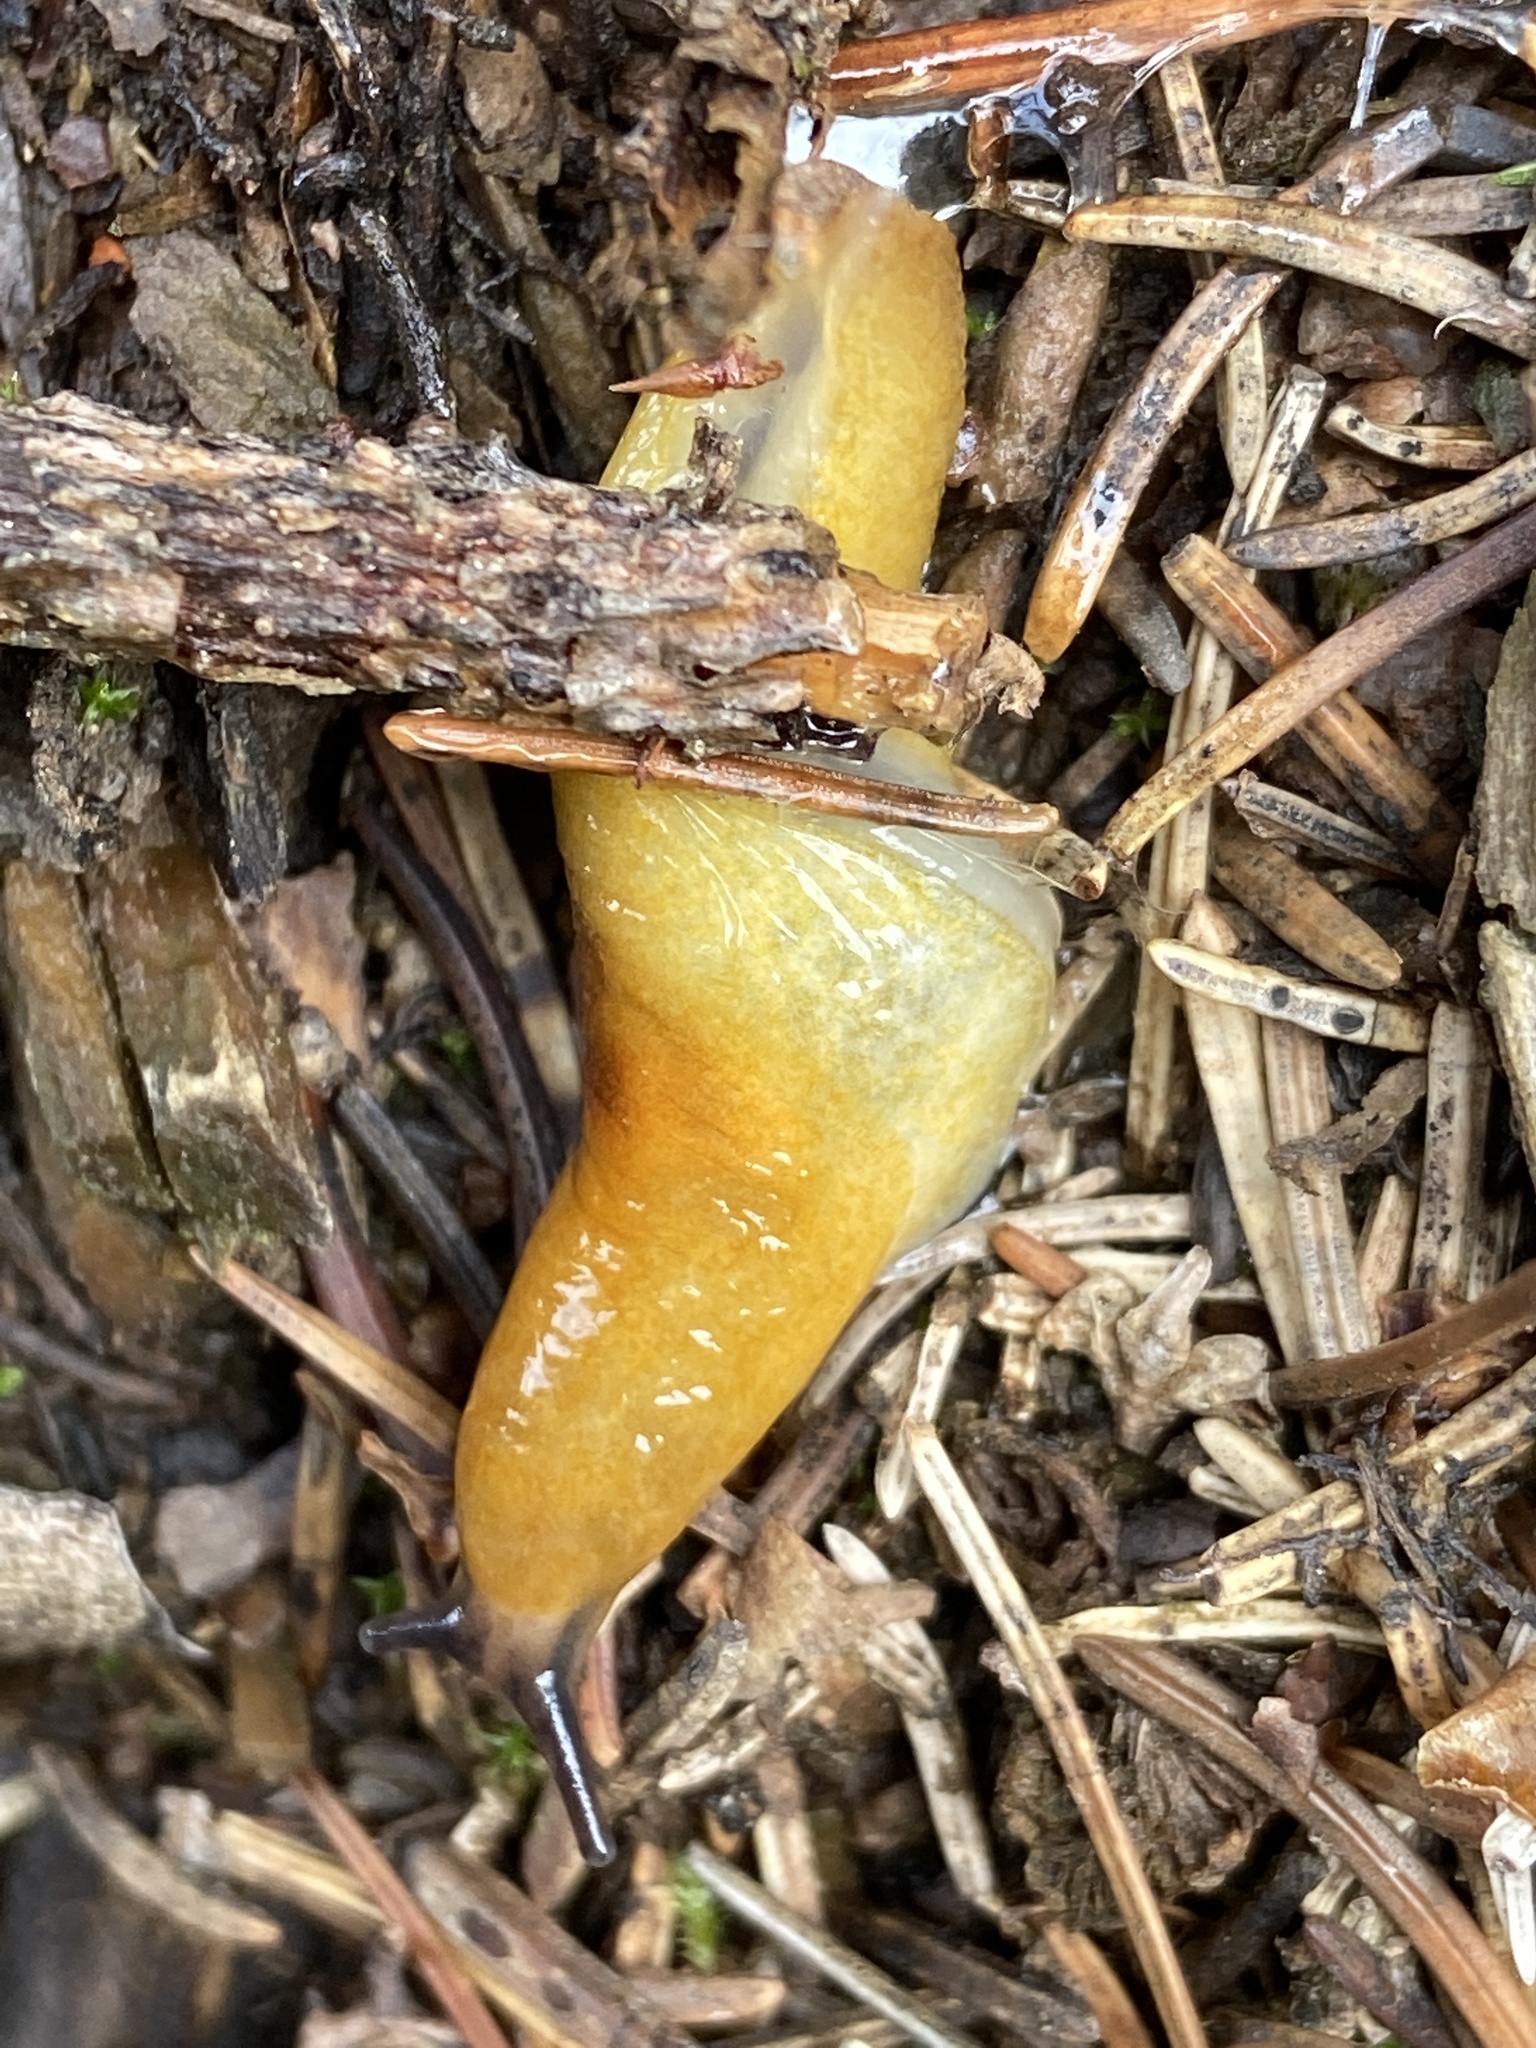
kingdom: Animalia
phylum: Mollusca
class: Gastropoda
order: Stylommatophora
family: Limacidae
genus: Malacolimax
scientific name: Malacolimax tenellus
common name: Lemon slug
